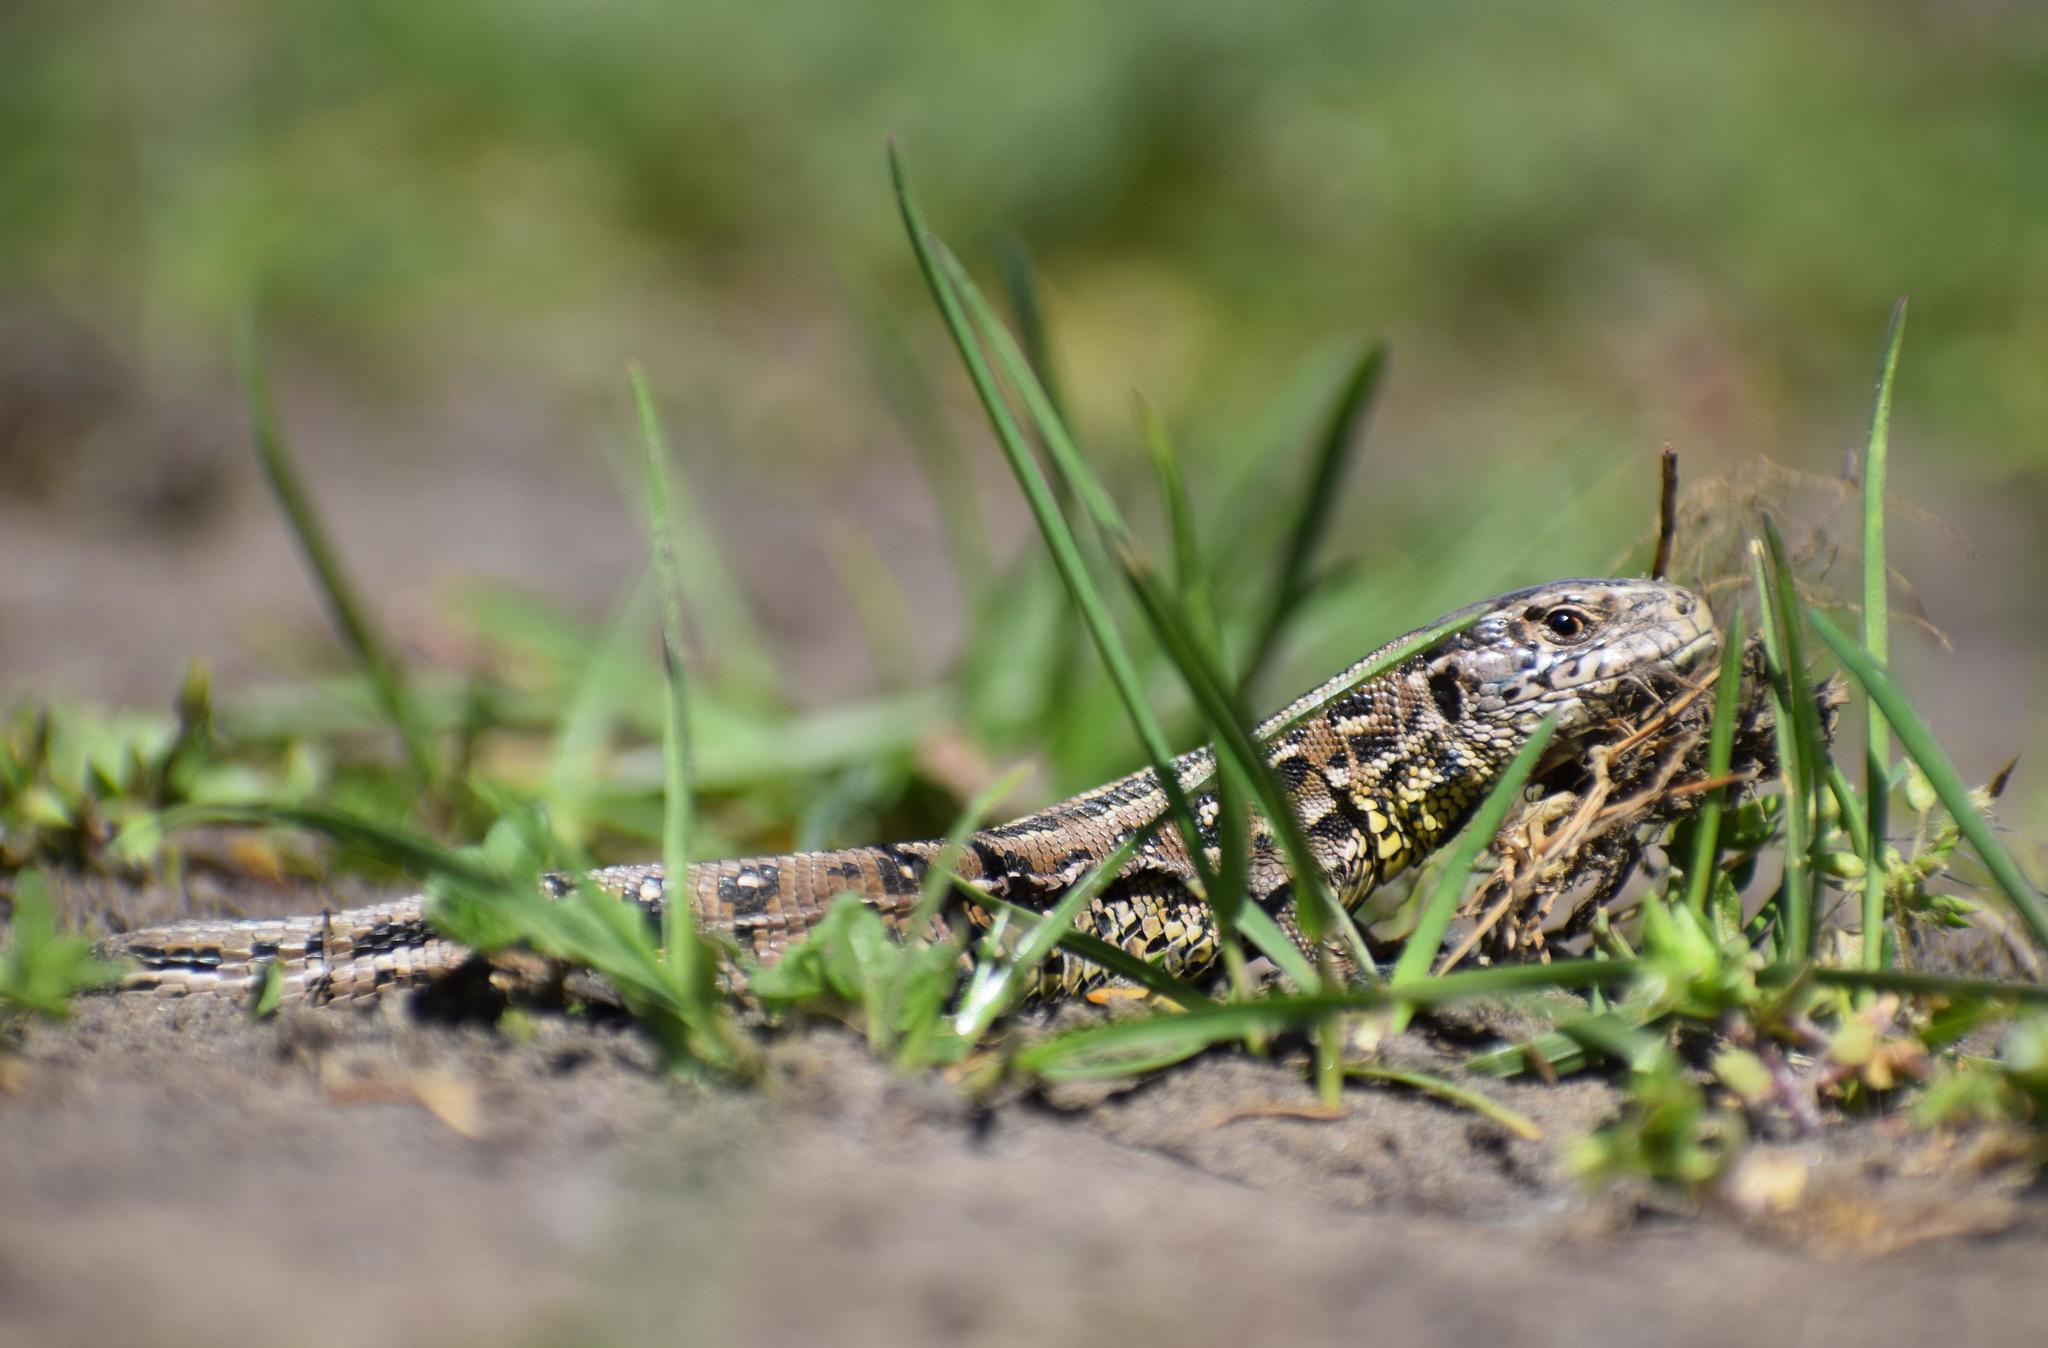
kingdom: Animalia
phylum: Chordata
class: Squamata
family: Lacertidae
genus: Lacerta
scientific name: Lacerta agilis
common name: Sand lizard
